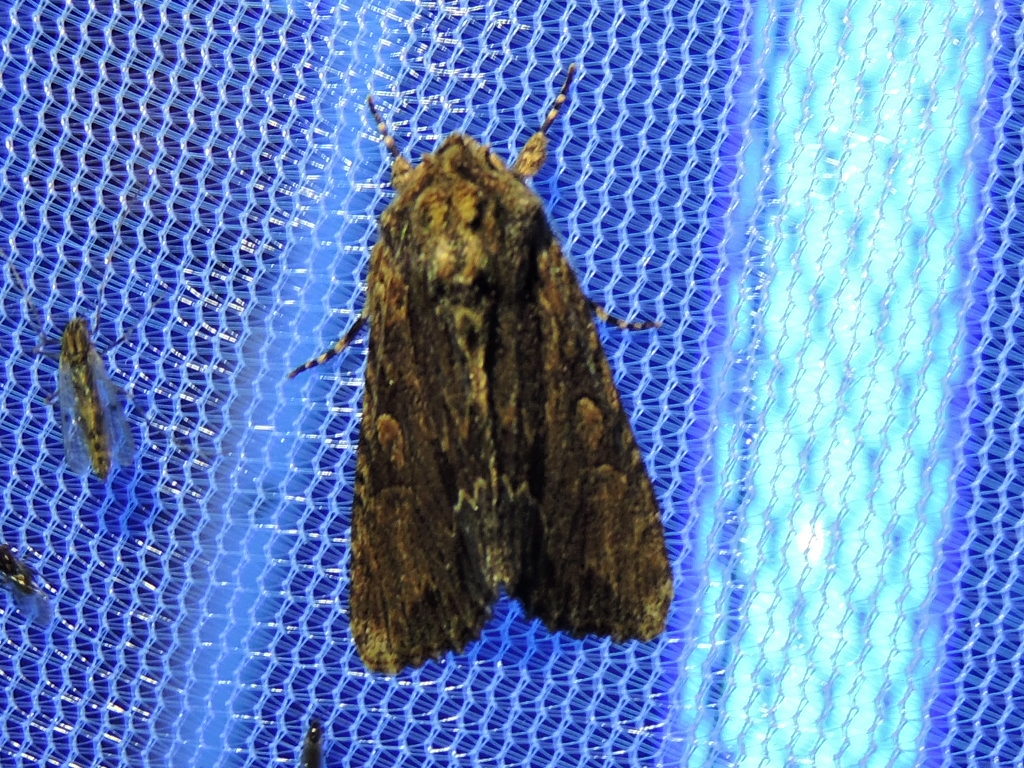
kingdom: Animalia
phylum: Arthropoda
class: Insecta
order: Lepidoptera
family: Noctuidae
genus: Achatia
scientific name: Achatia mucens
